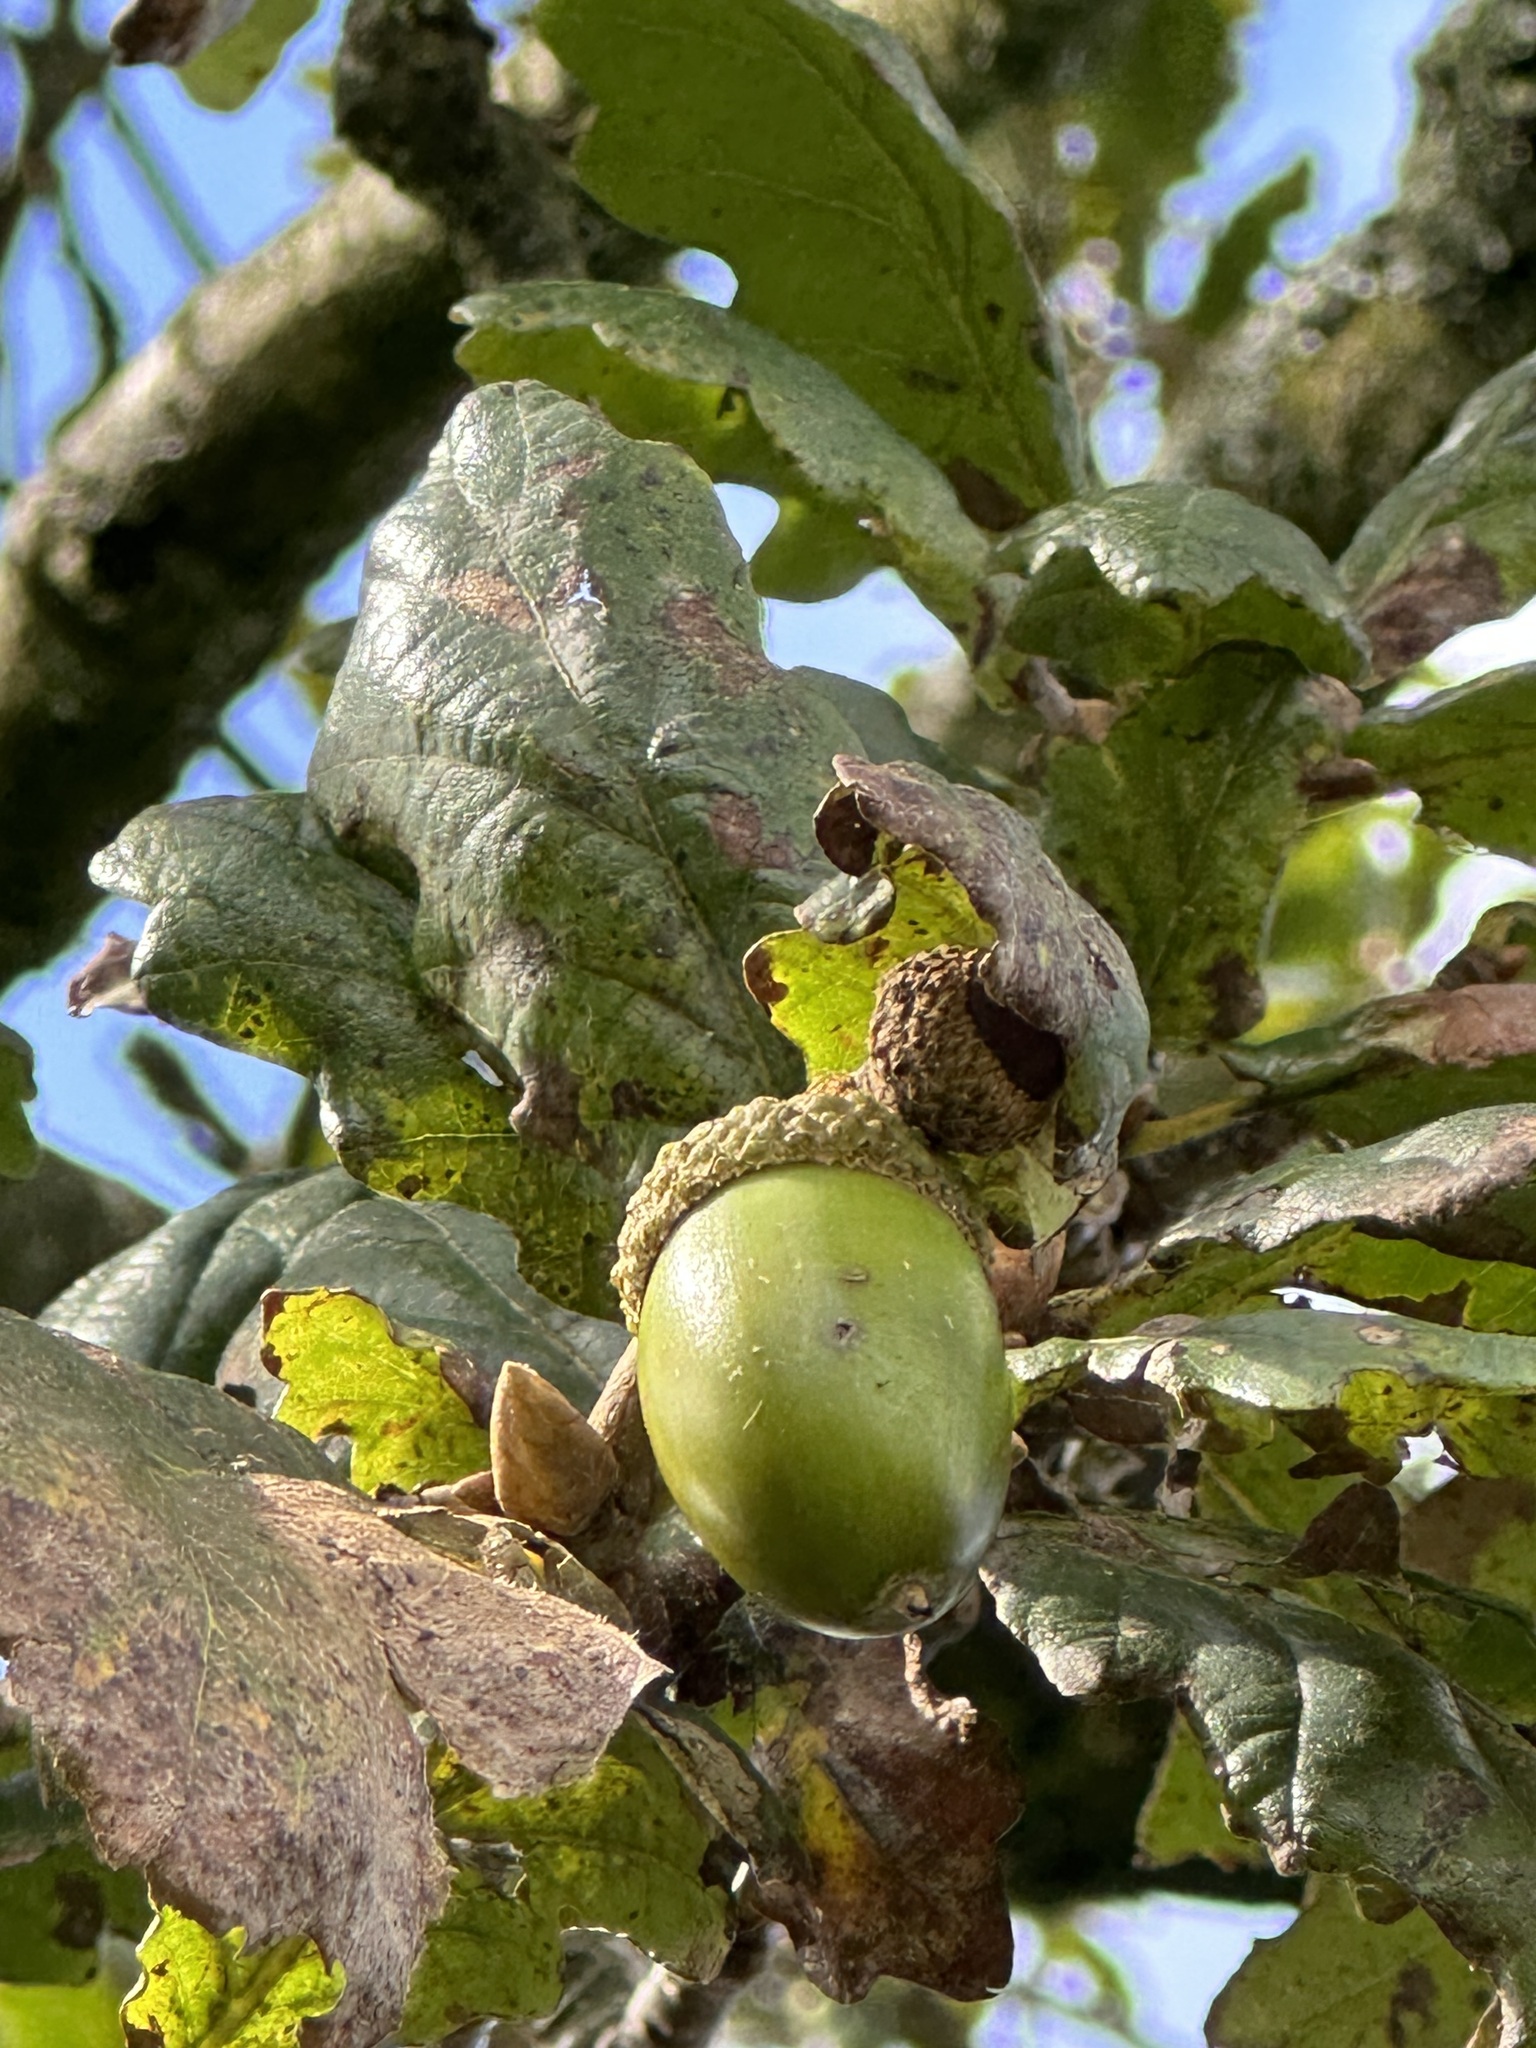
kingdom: Plantae
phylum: Tracheophyta
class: Magnoliopsida
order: Fagales
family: Fagaceae
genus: Quercus
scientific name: Quercus robur
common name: Pedunculate oak
